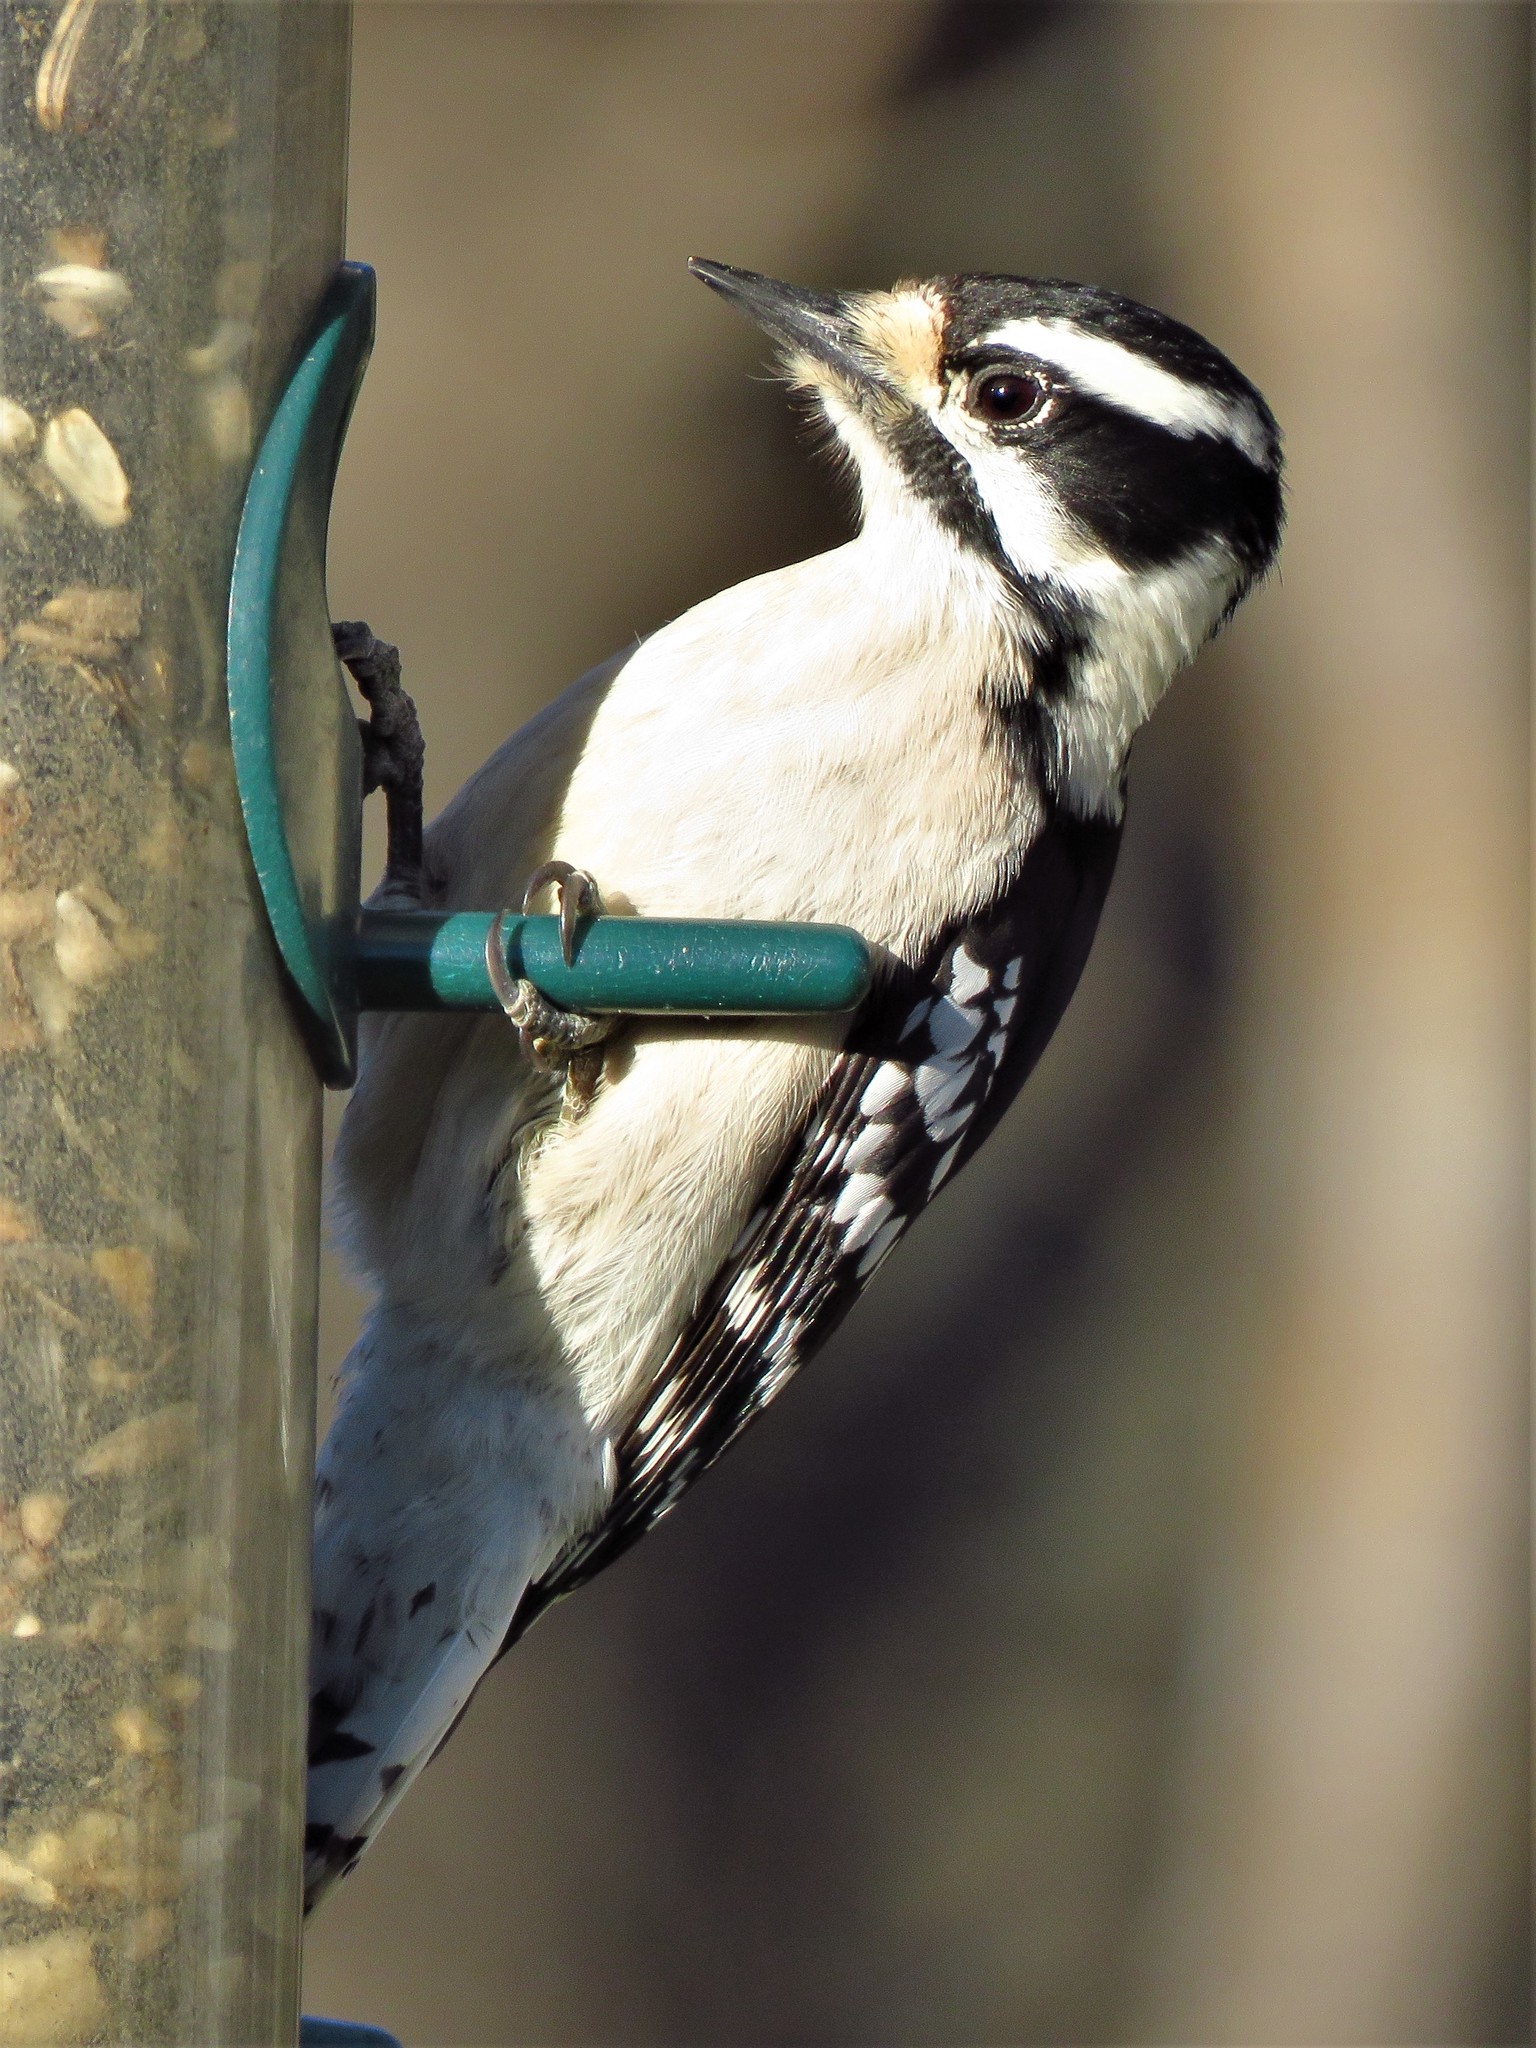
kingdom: Animalia
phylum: Chordata
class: Aves
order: Piciformes
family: Picidae
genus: Dryobates
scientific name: Dryobates pubescens
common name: Downy woodpecker
